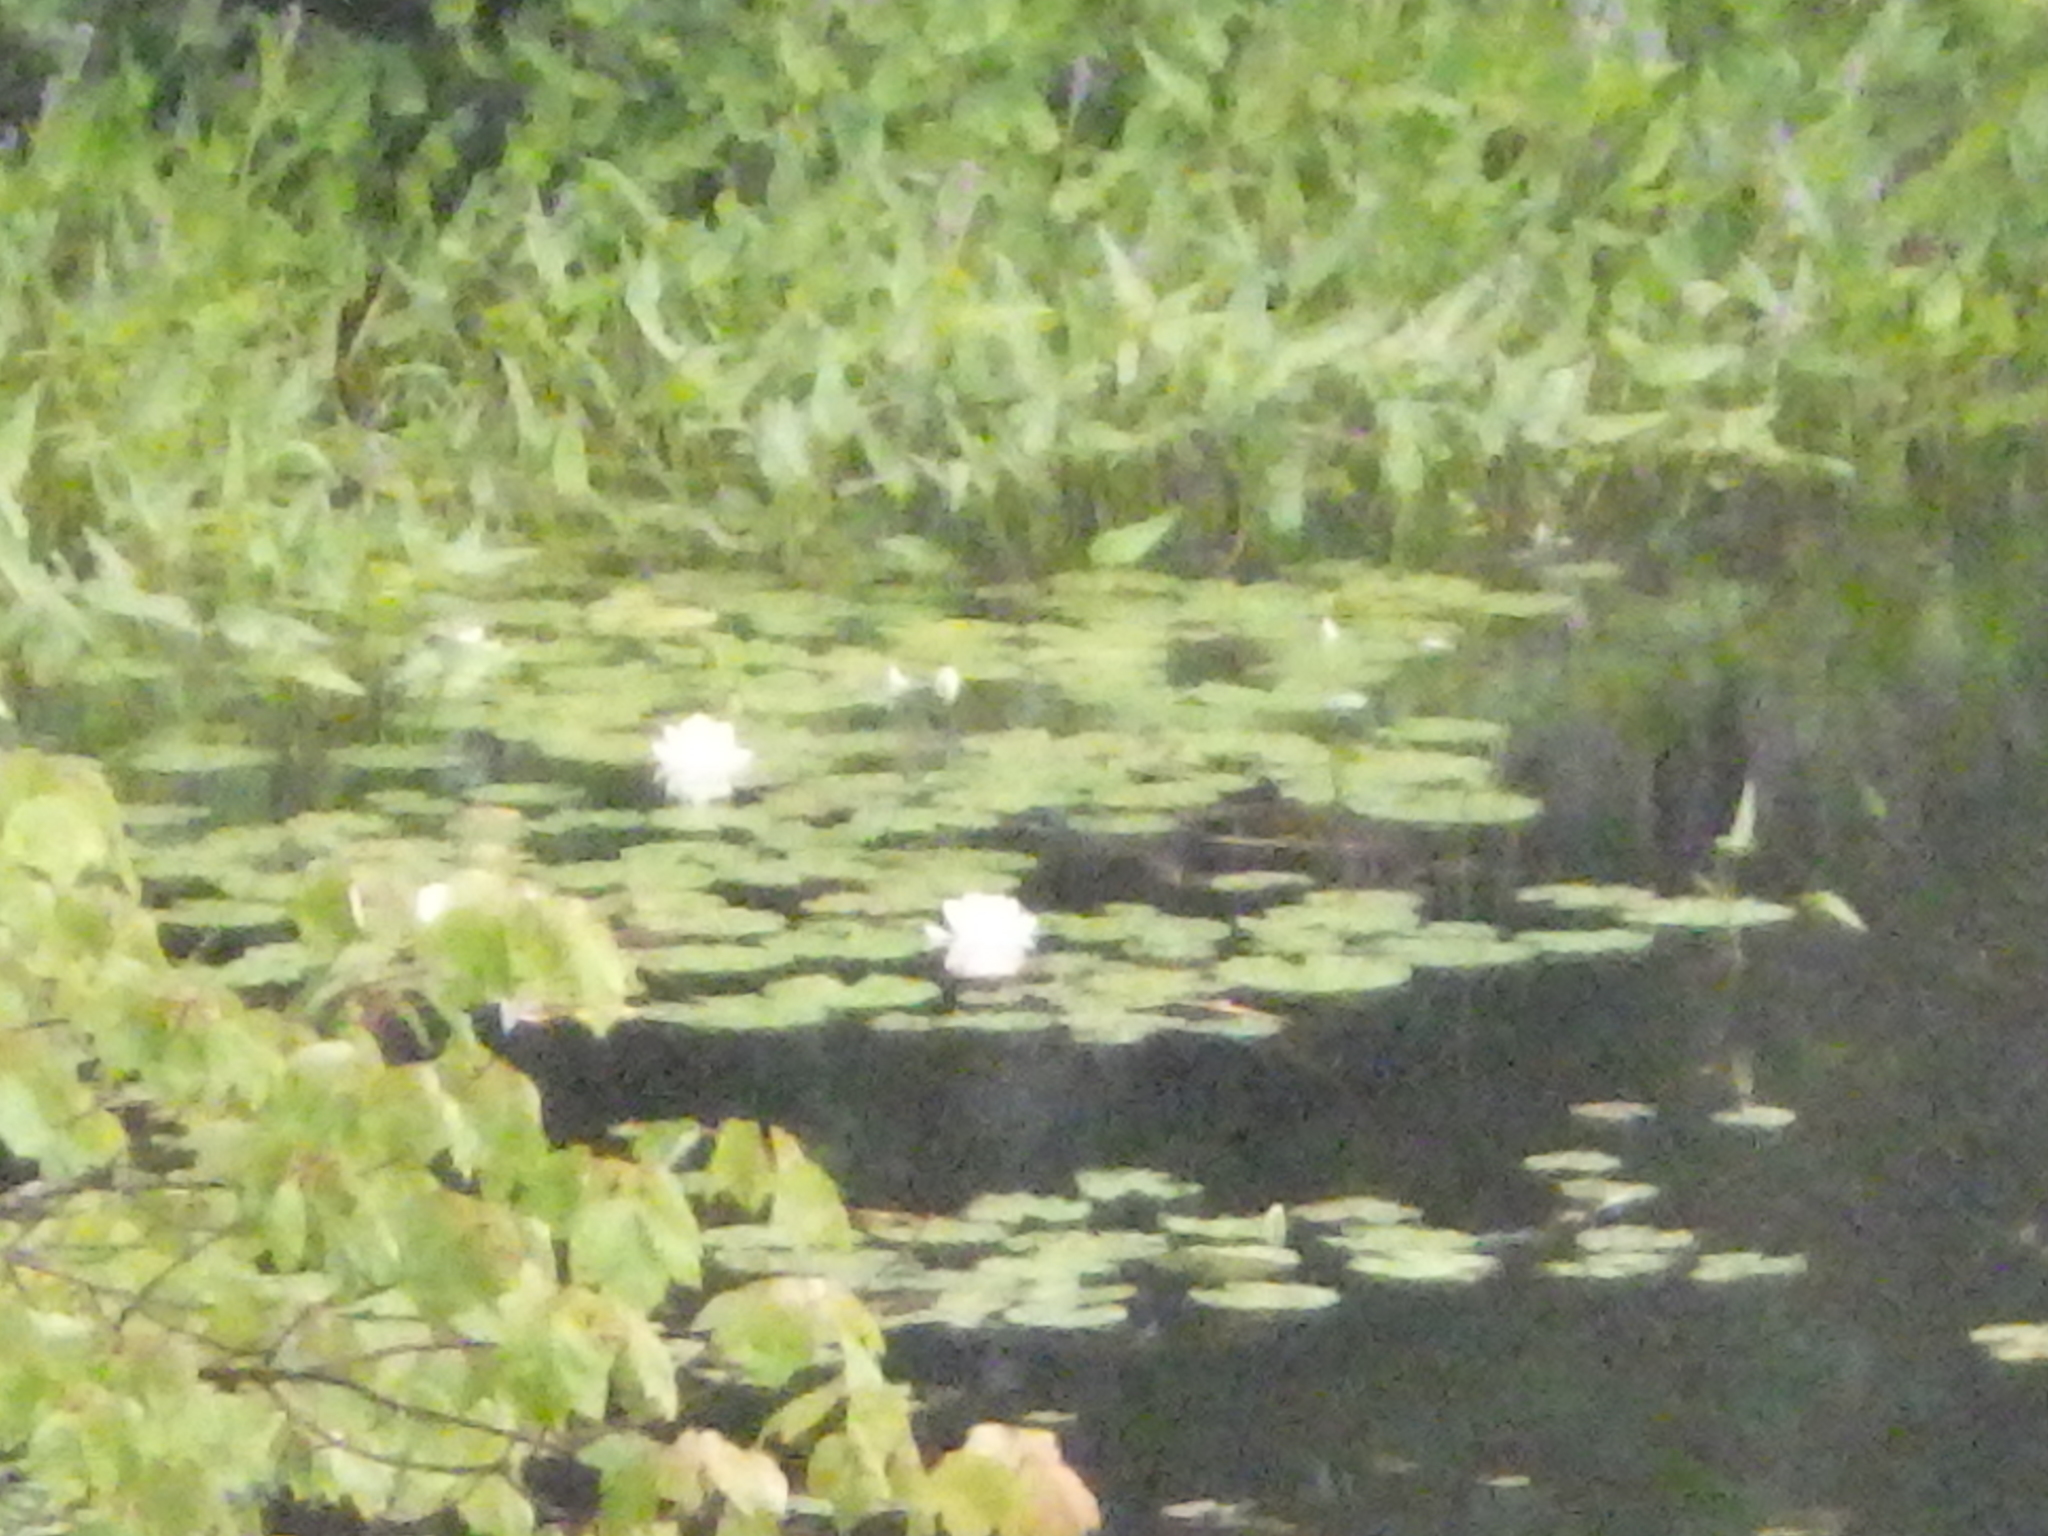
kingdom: Plantae
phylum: Tracheophyta
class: Magnoliopsida
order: Nymphaeales
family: Nymphaeaceae
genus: Nymphaea
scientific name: Nymphaea odorata
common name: Fragrant water-lily
